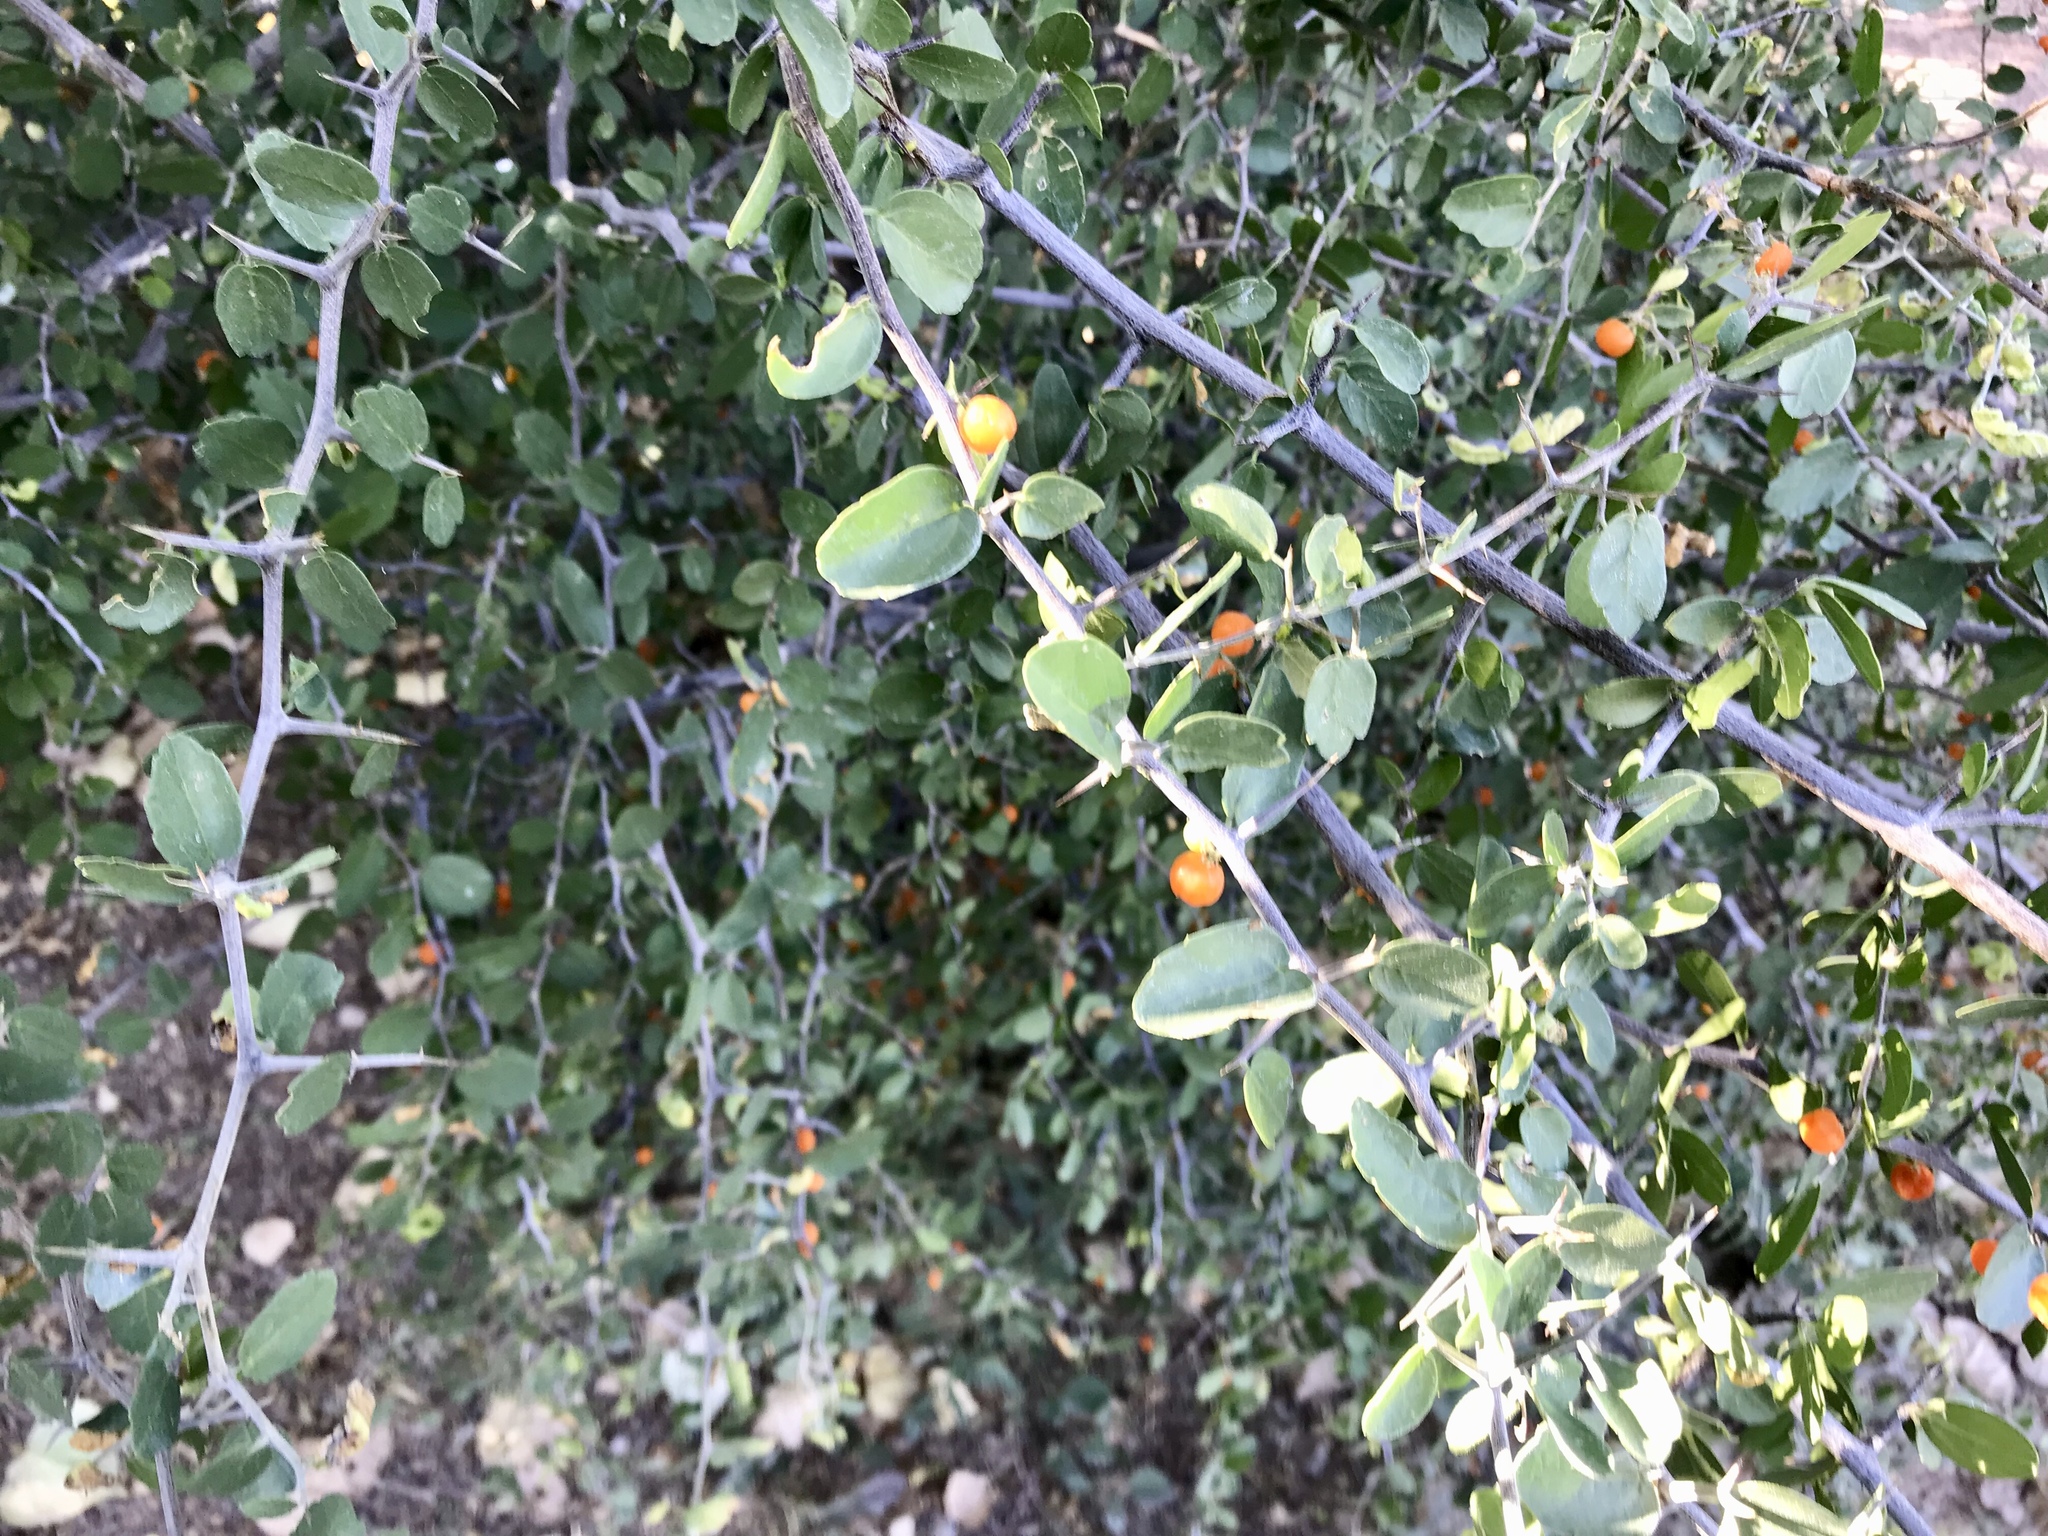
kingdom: Plantae
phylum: Tracheophyta
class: Magnoliopsida
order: Rosales
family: Cannabaceae
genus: Celtis
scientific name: Celtis pallida
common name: Desert hackberry
